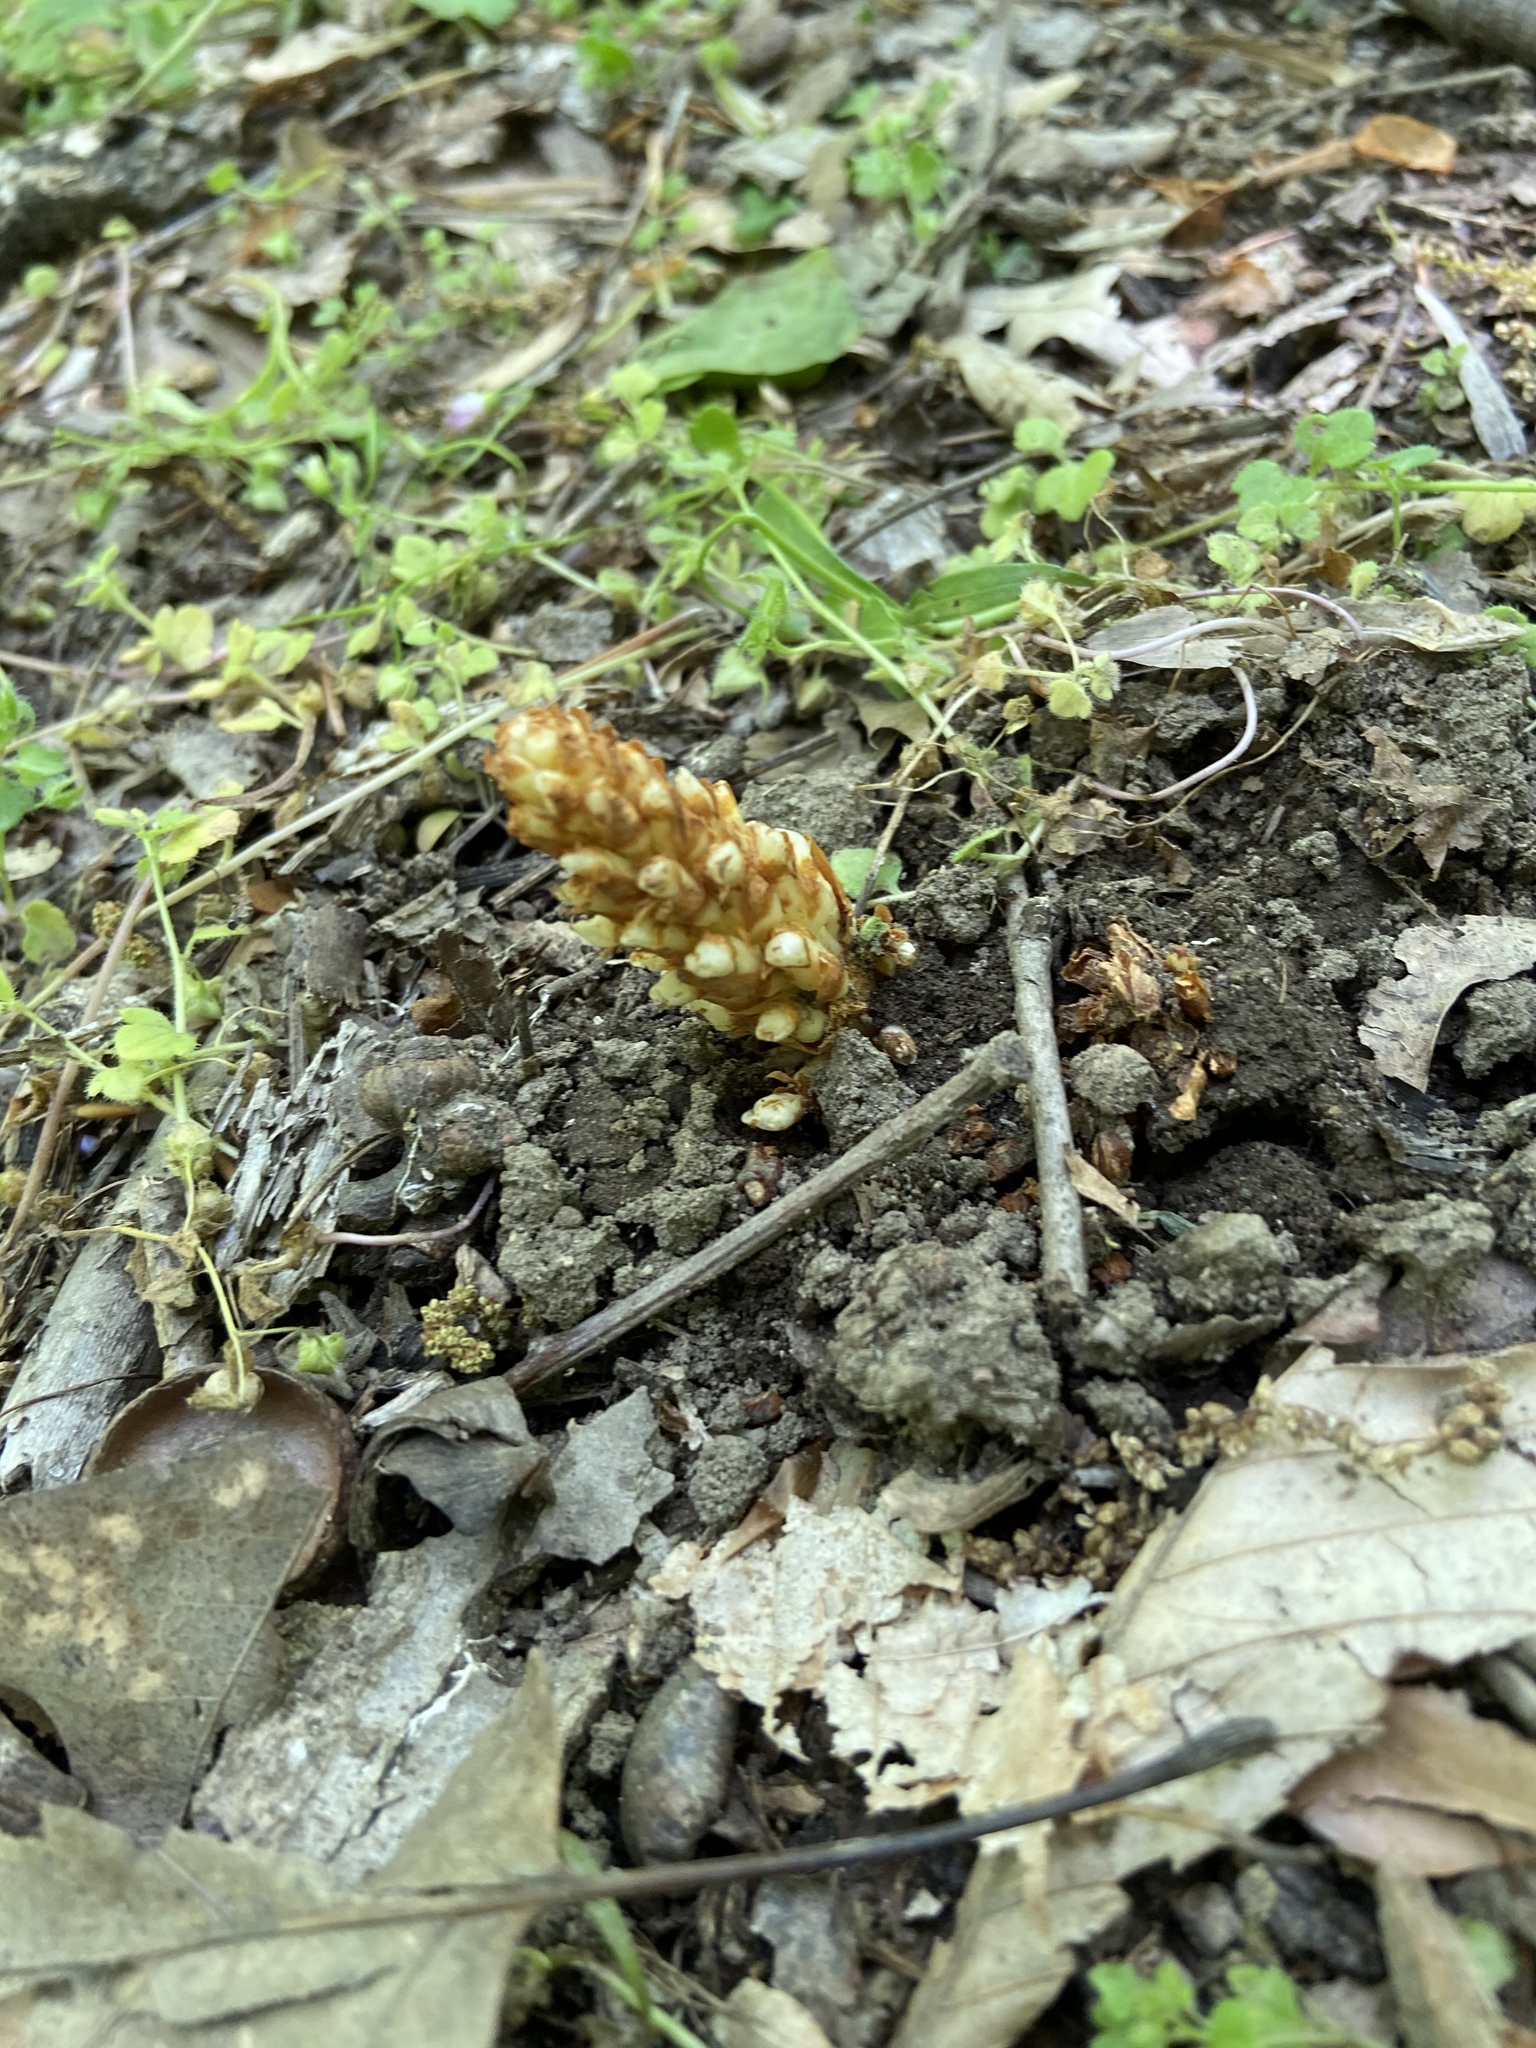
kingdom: Plantae
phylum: Tracheophyta
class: Magnoliopsida
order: Lamiales
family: Orobanchaceae
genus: Conopholis
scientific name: Conopholis americana
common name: American cancer-root
